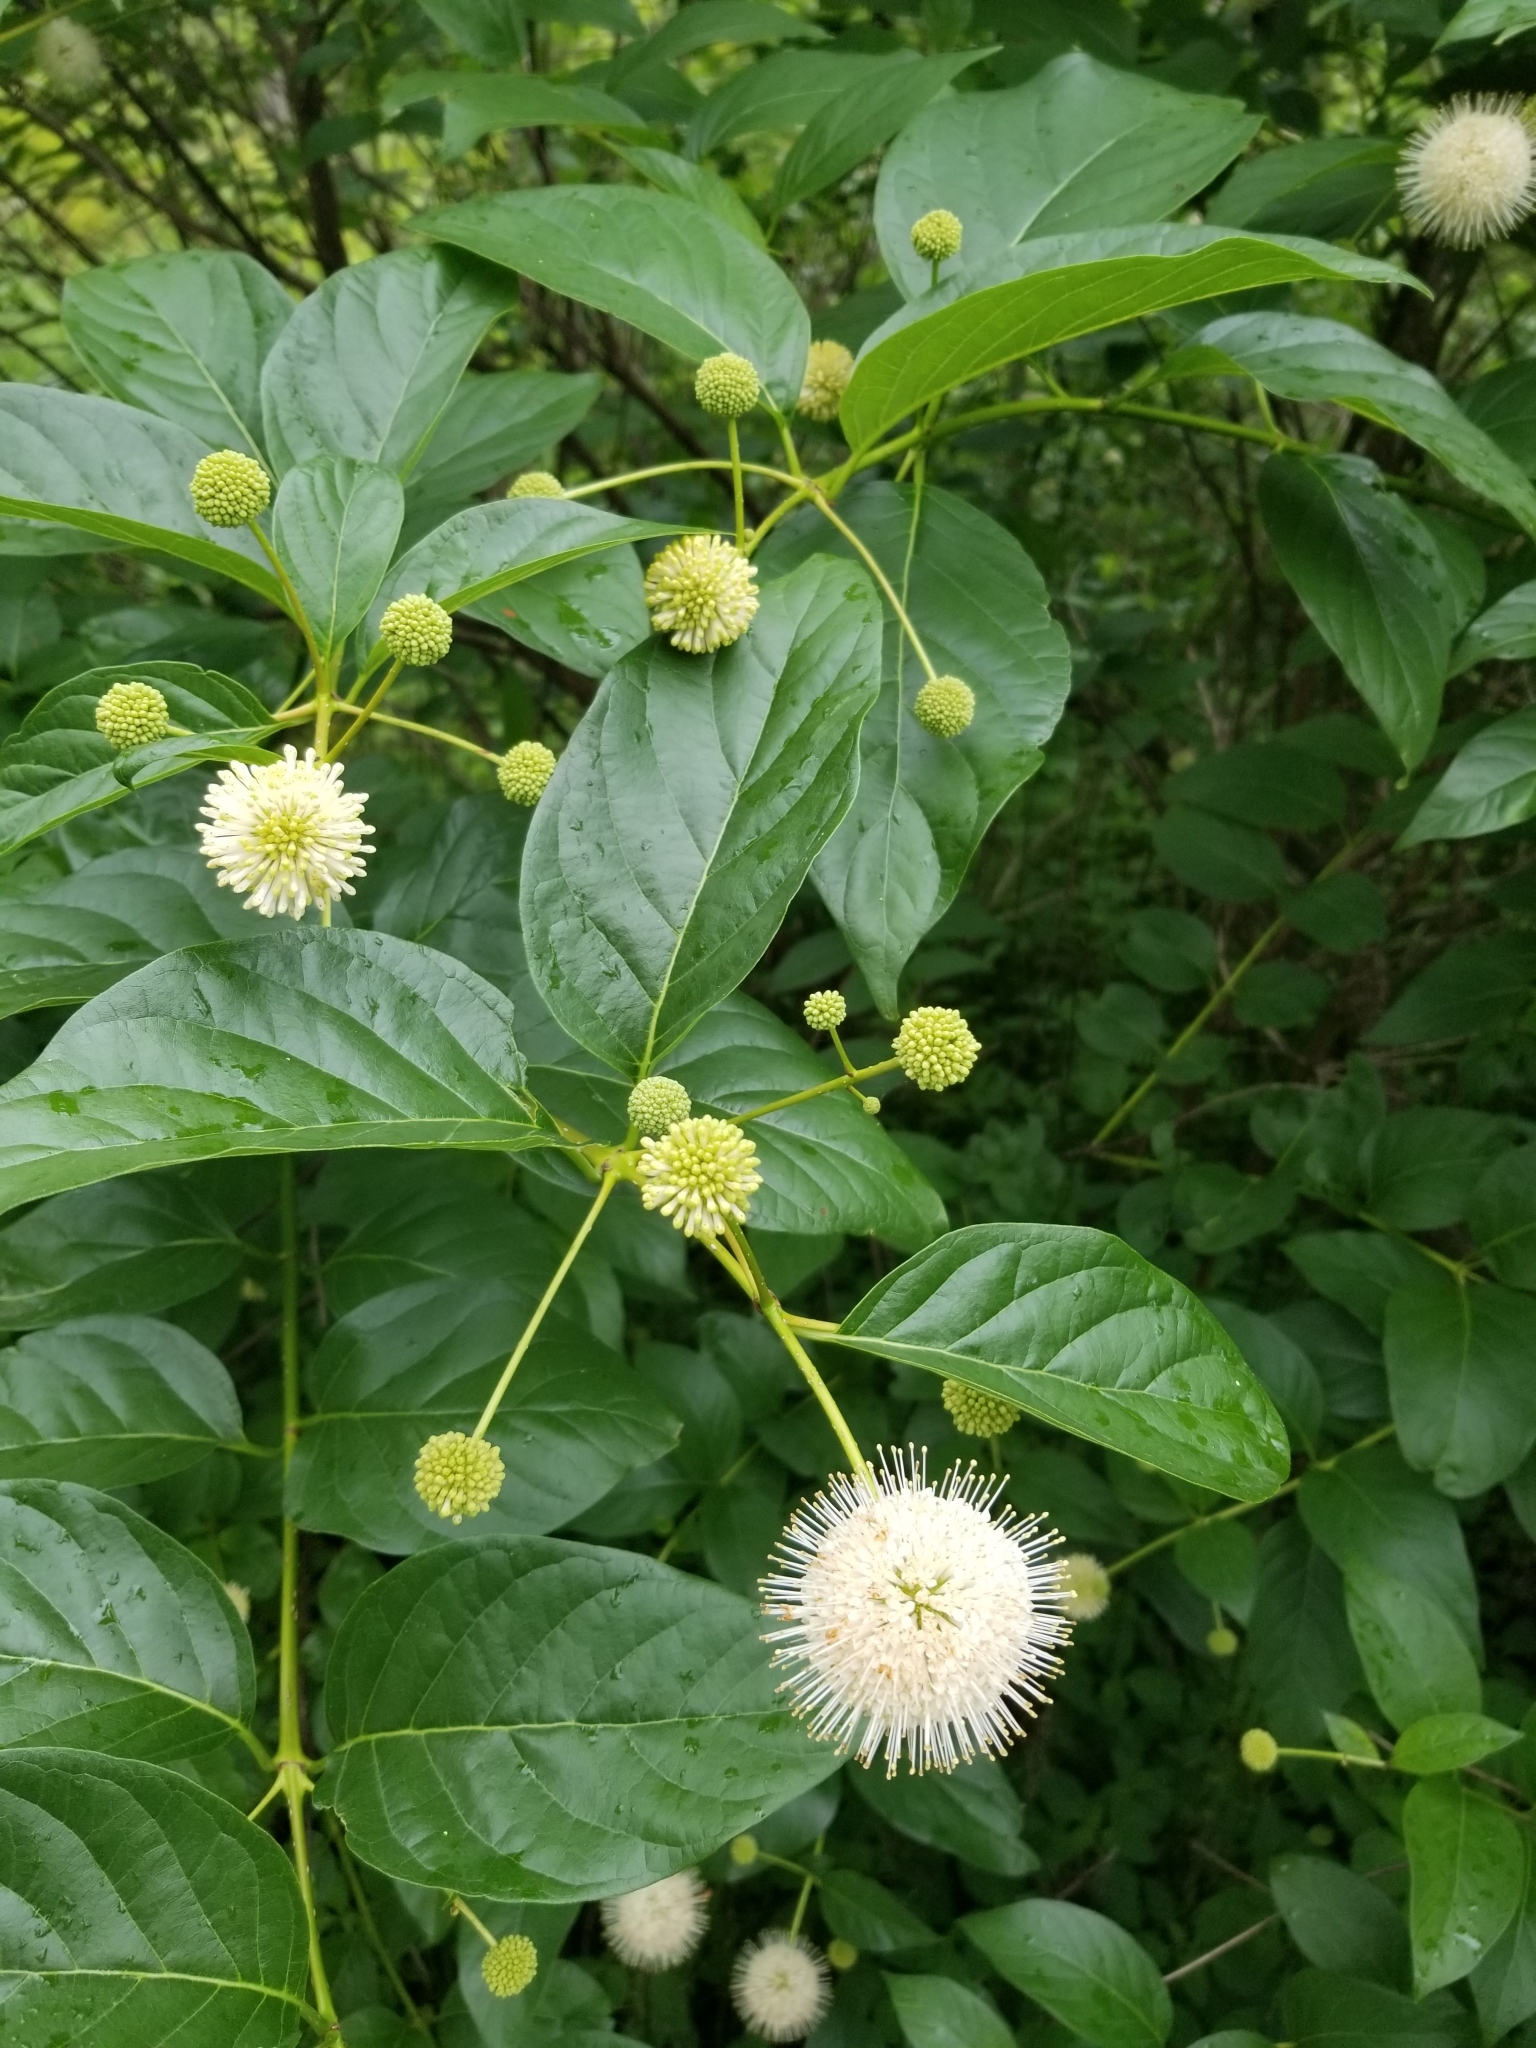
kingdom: Plantae
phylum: Tracheophyta
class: Magnoliopsida
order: Gentianales
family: Rubiaceae
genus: Cephalanthus
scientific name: Cephalanthus occidentalis
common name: Button-willow
